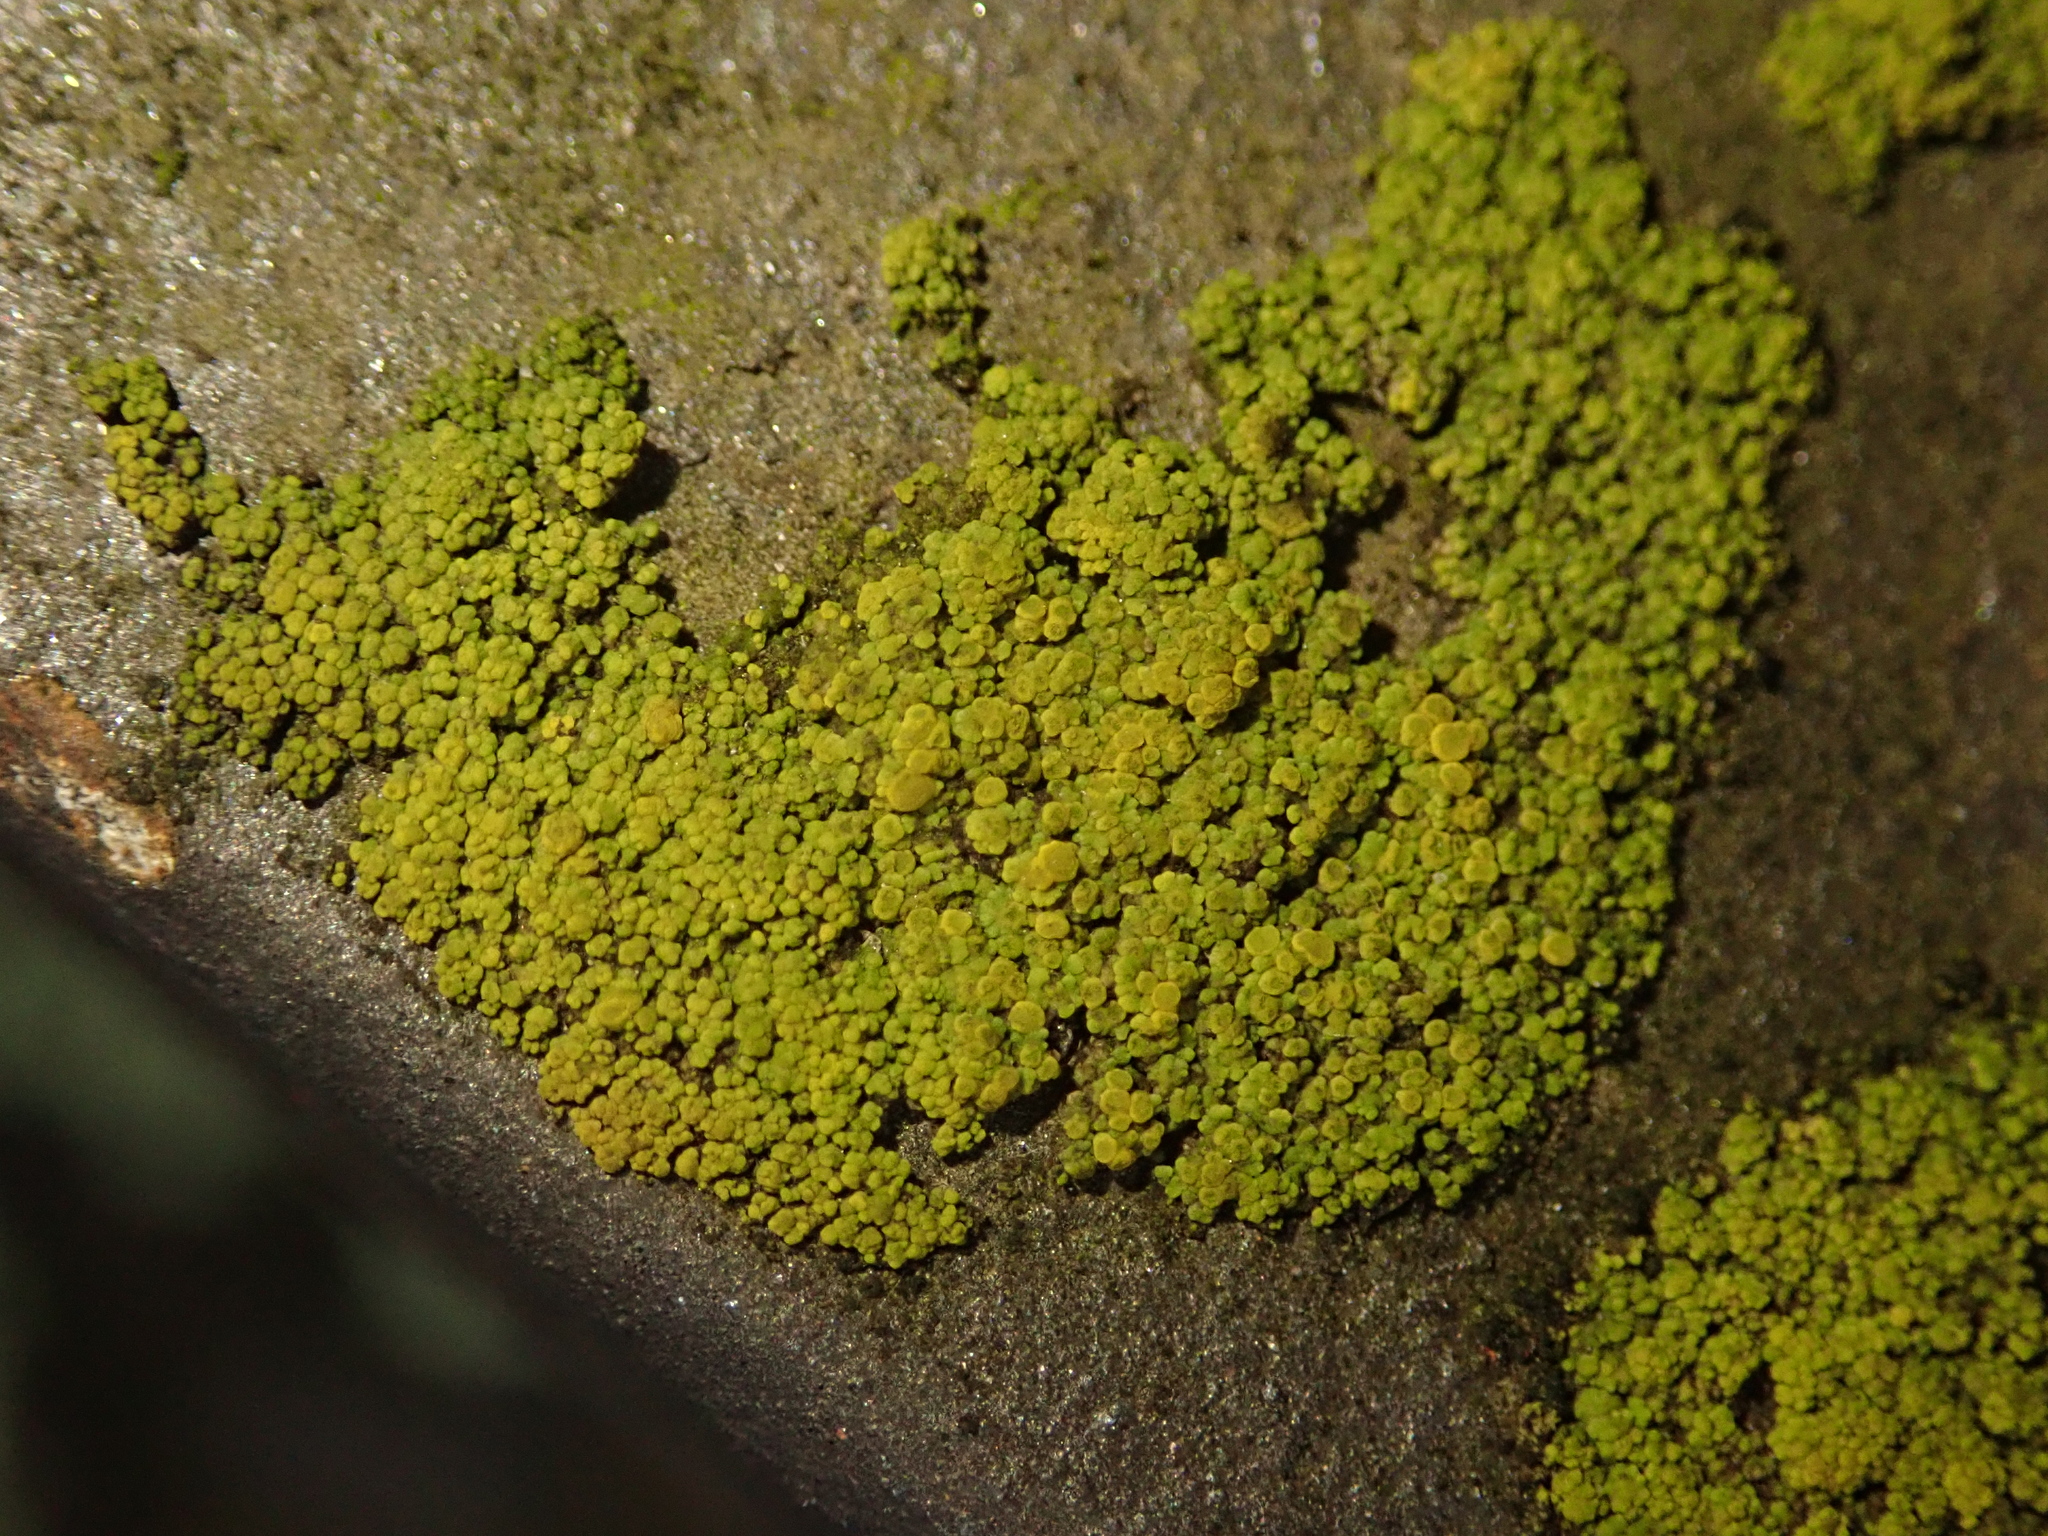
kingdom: Fungi
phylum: Ascomycota
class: Candelariomycetes
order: Candelariales
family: Candelariaceae
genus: Candelariella
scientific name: Candelariella vitellina
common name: Common goldspeck
